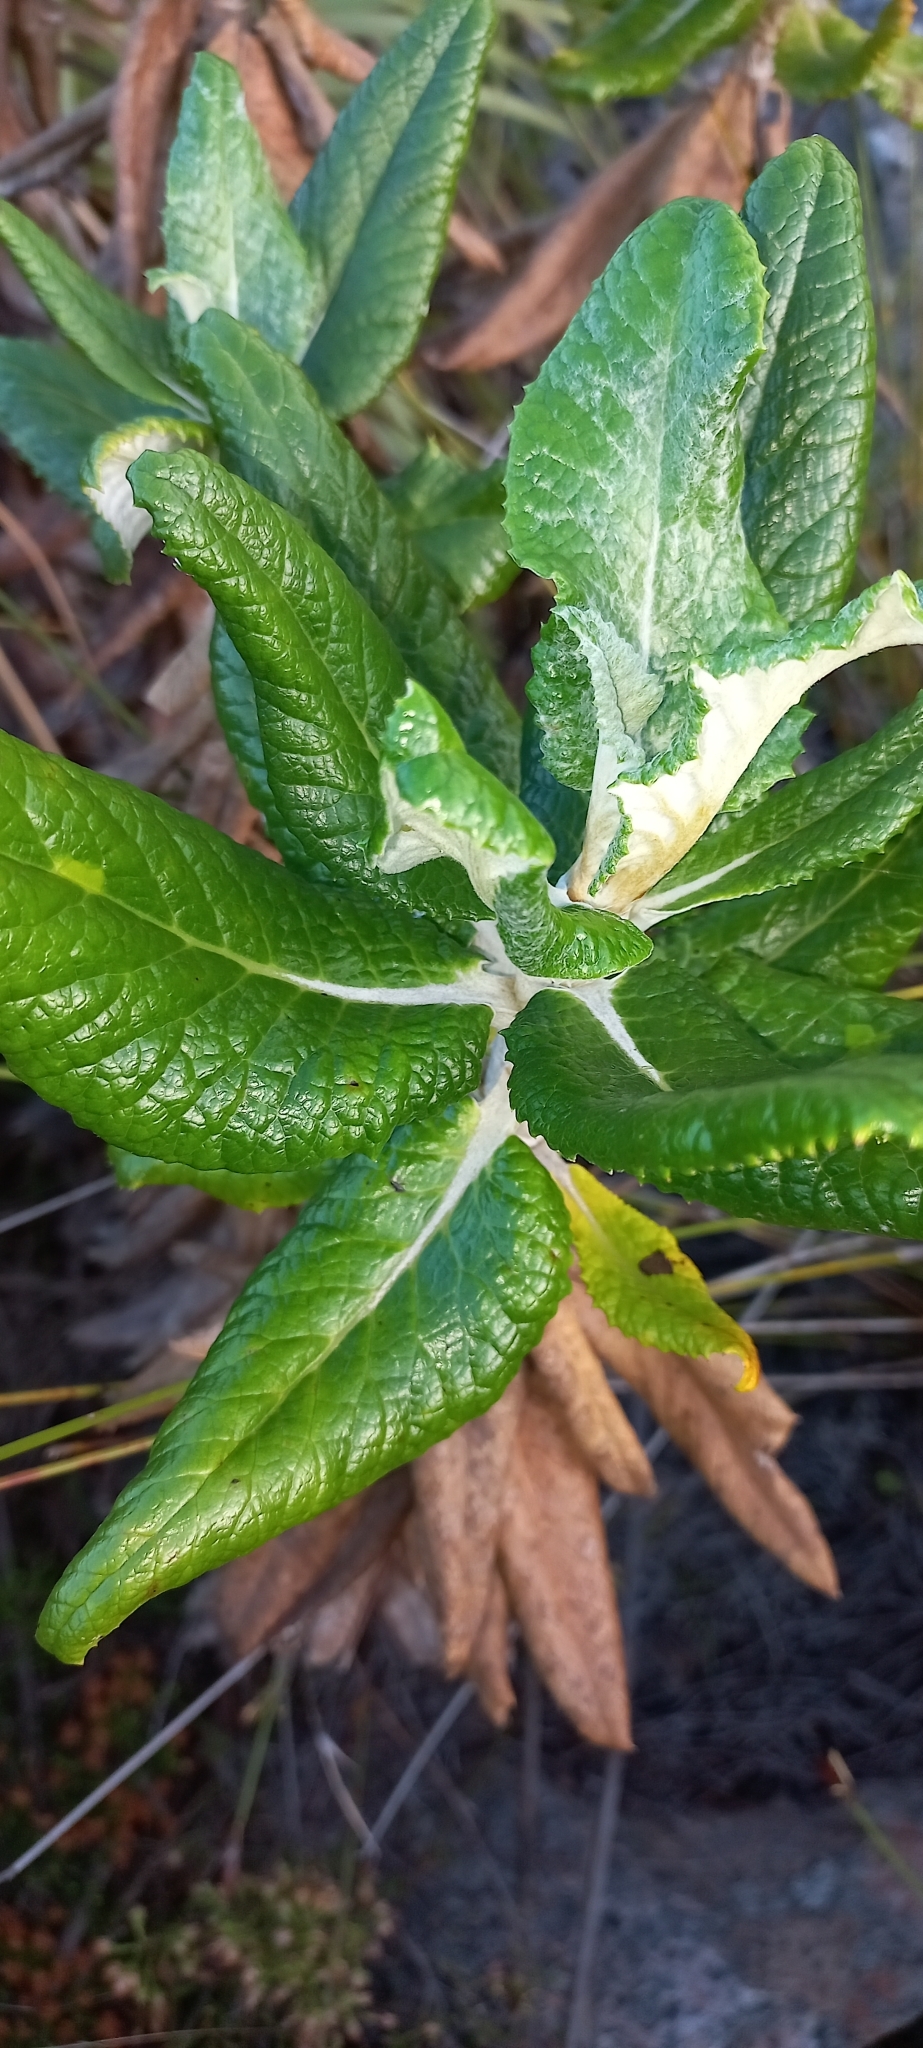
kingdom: Plantae
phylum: Tracheophyta
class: Magnoliopsida
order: Apiales
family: Apiaceae
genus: Hermas
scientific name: Hermas villosa
